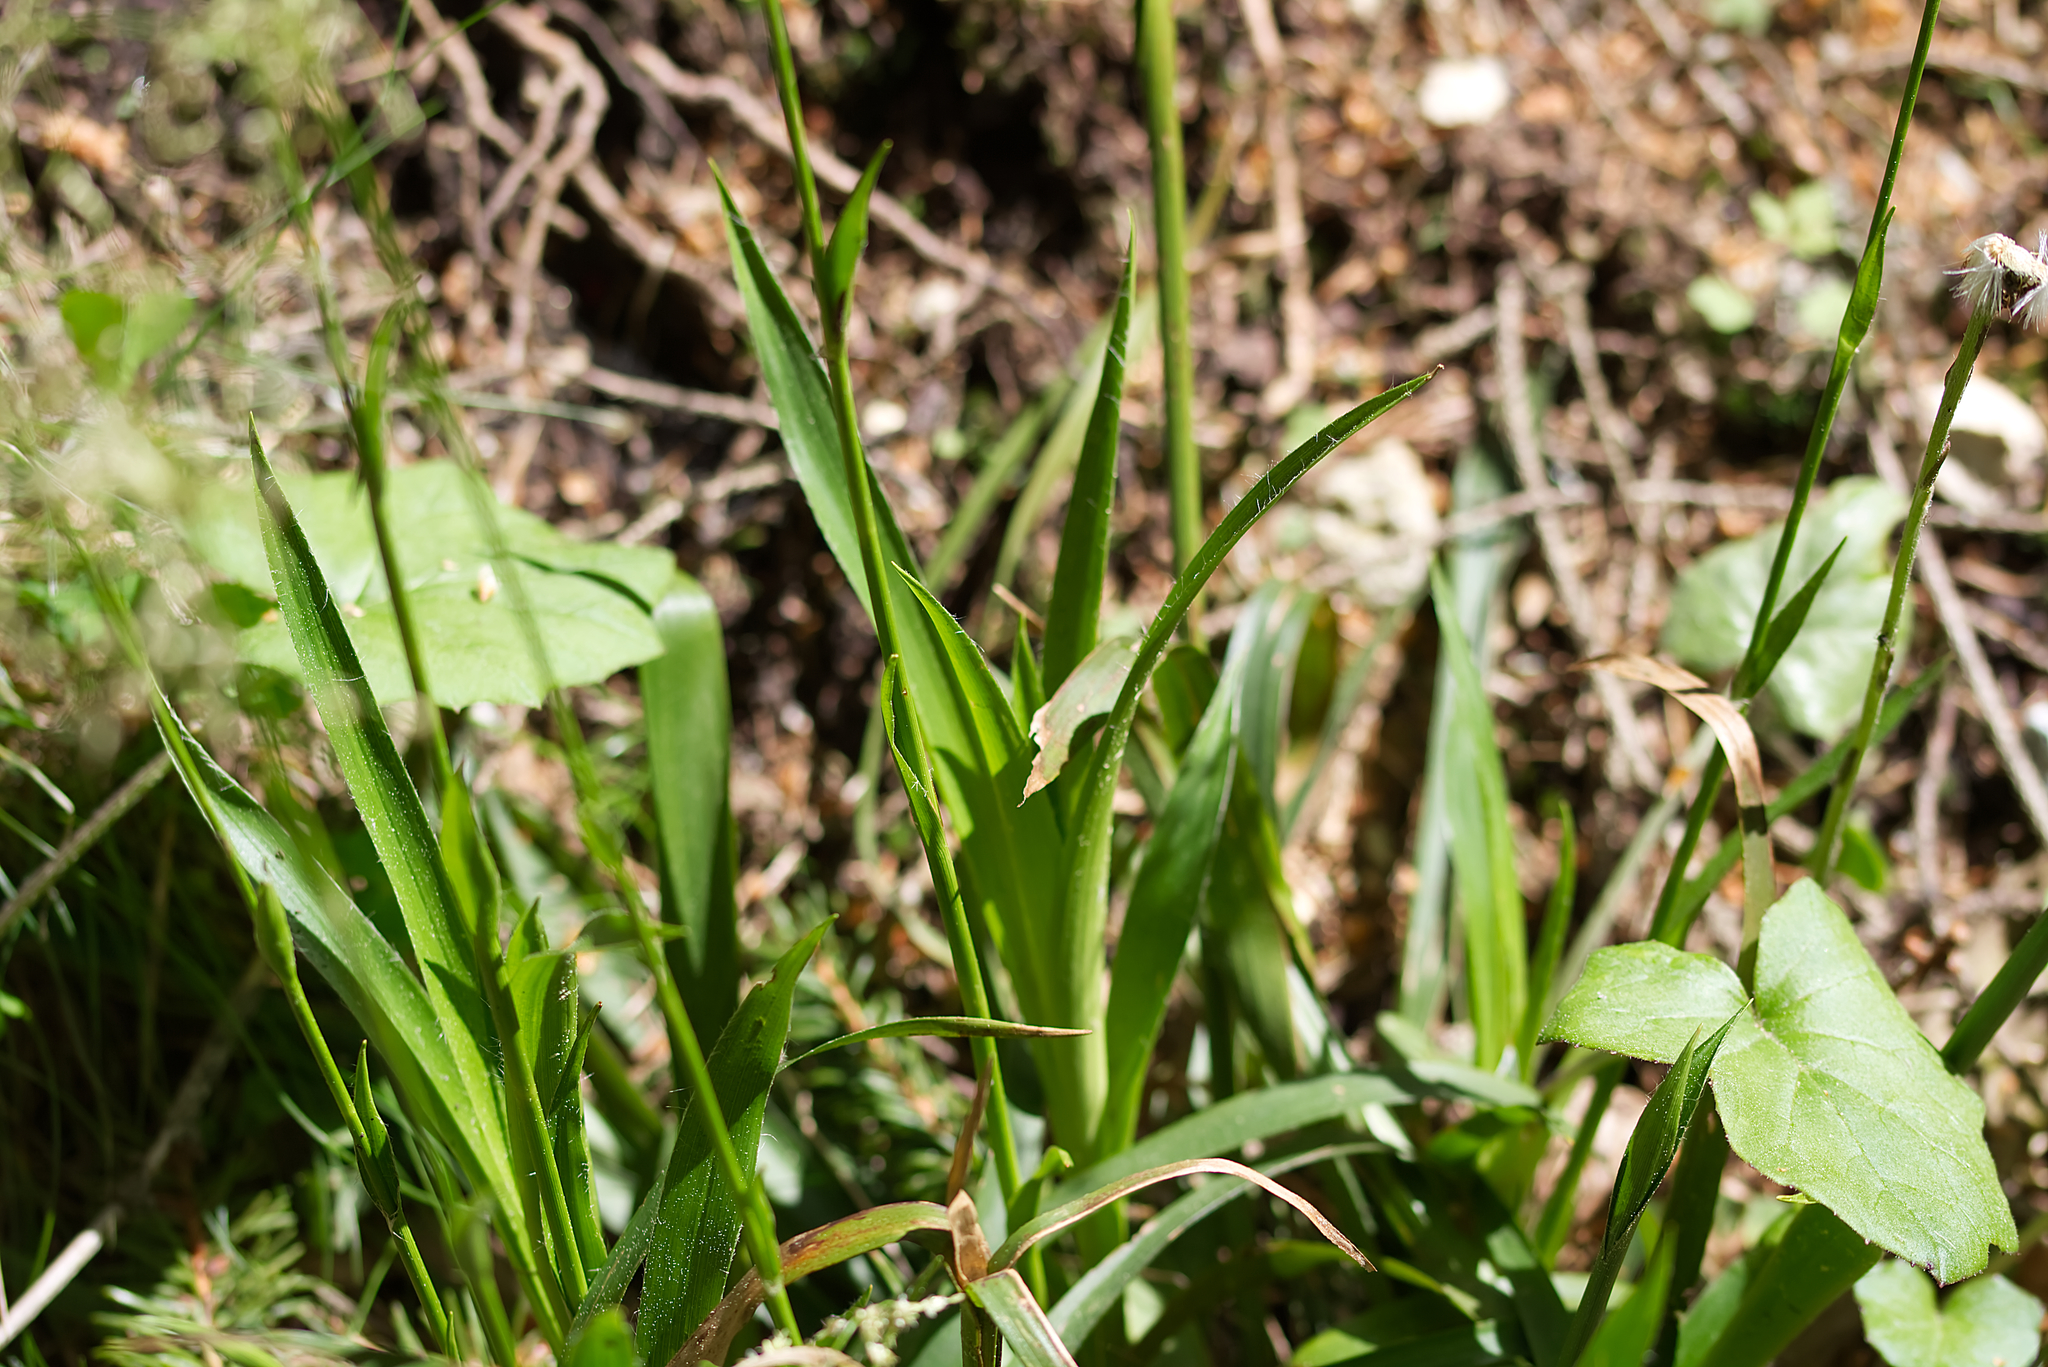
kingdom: Plantae
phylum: Tracheophyta
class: Liliopsida
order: Poales
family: Juncaceae
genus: Luzula
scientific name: Luzula sylvatica
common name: Great wood-rush
